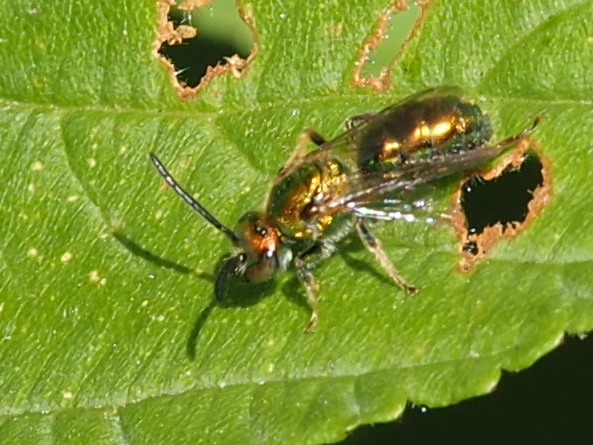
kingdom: Animalia
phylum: Arthropoda
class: Insecta
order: Hymenoptera
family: Halictidae
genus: Augochlora
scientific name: Augochlora pura
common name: Pure green sweat bee
